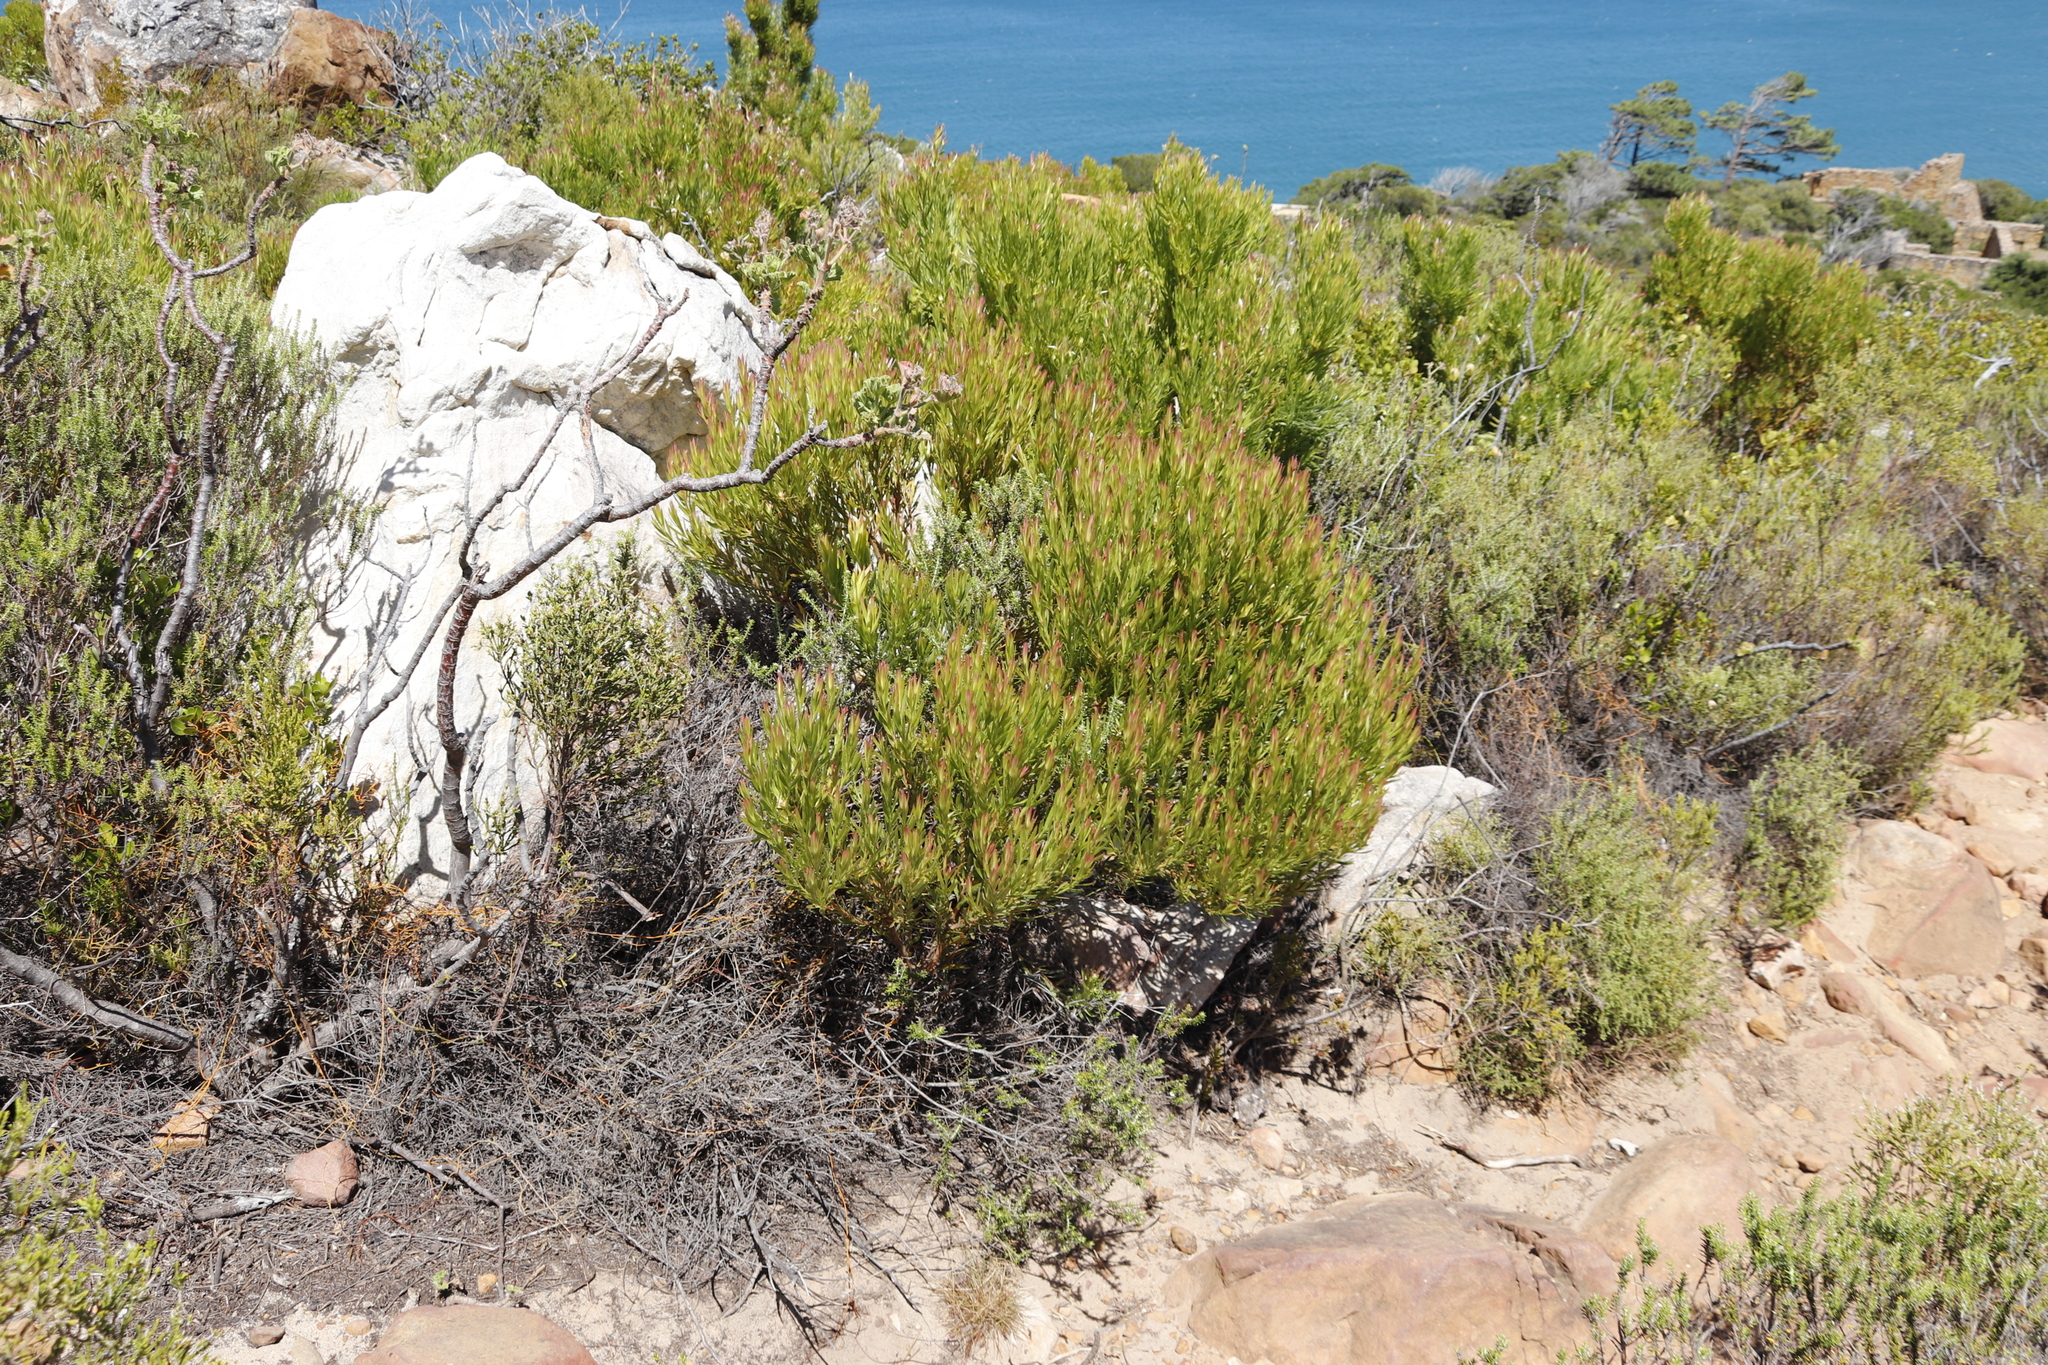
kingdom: Plantae
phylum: Tracheophyta
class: Magnoliopsida
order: Proteales
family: Proteaceae
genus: Leucadendron
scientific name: Leucadendron xanthoconus
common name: Sickle-leaf conebush
